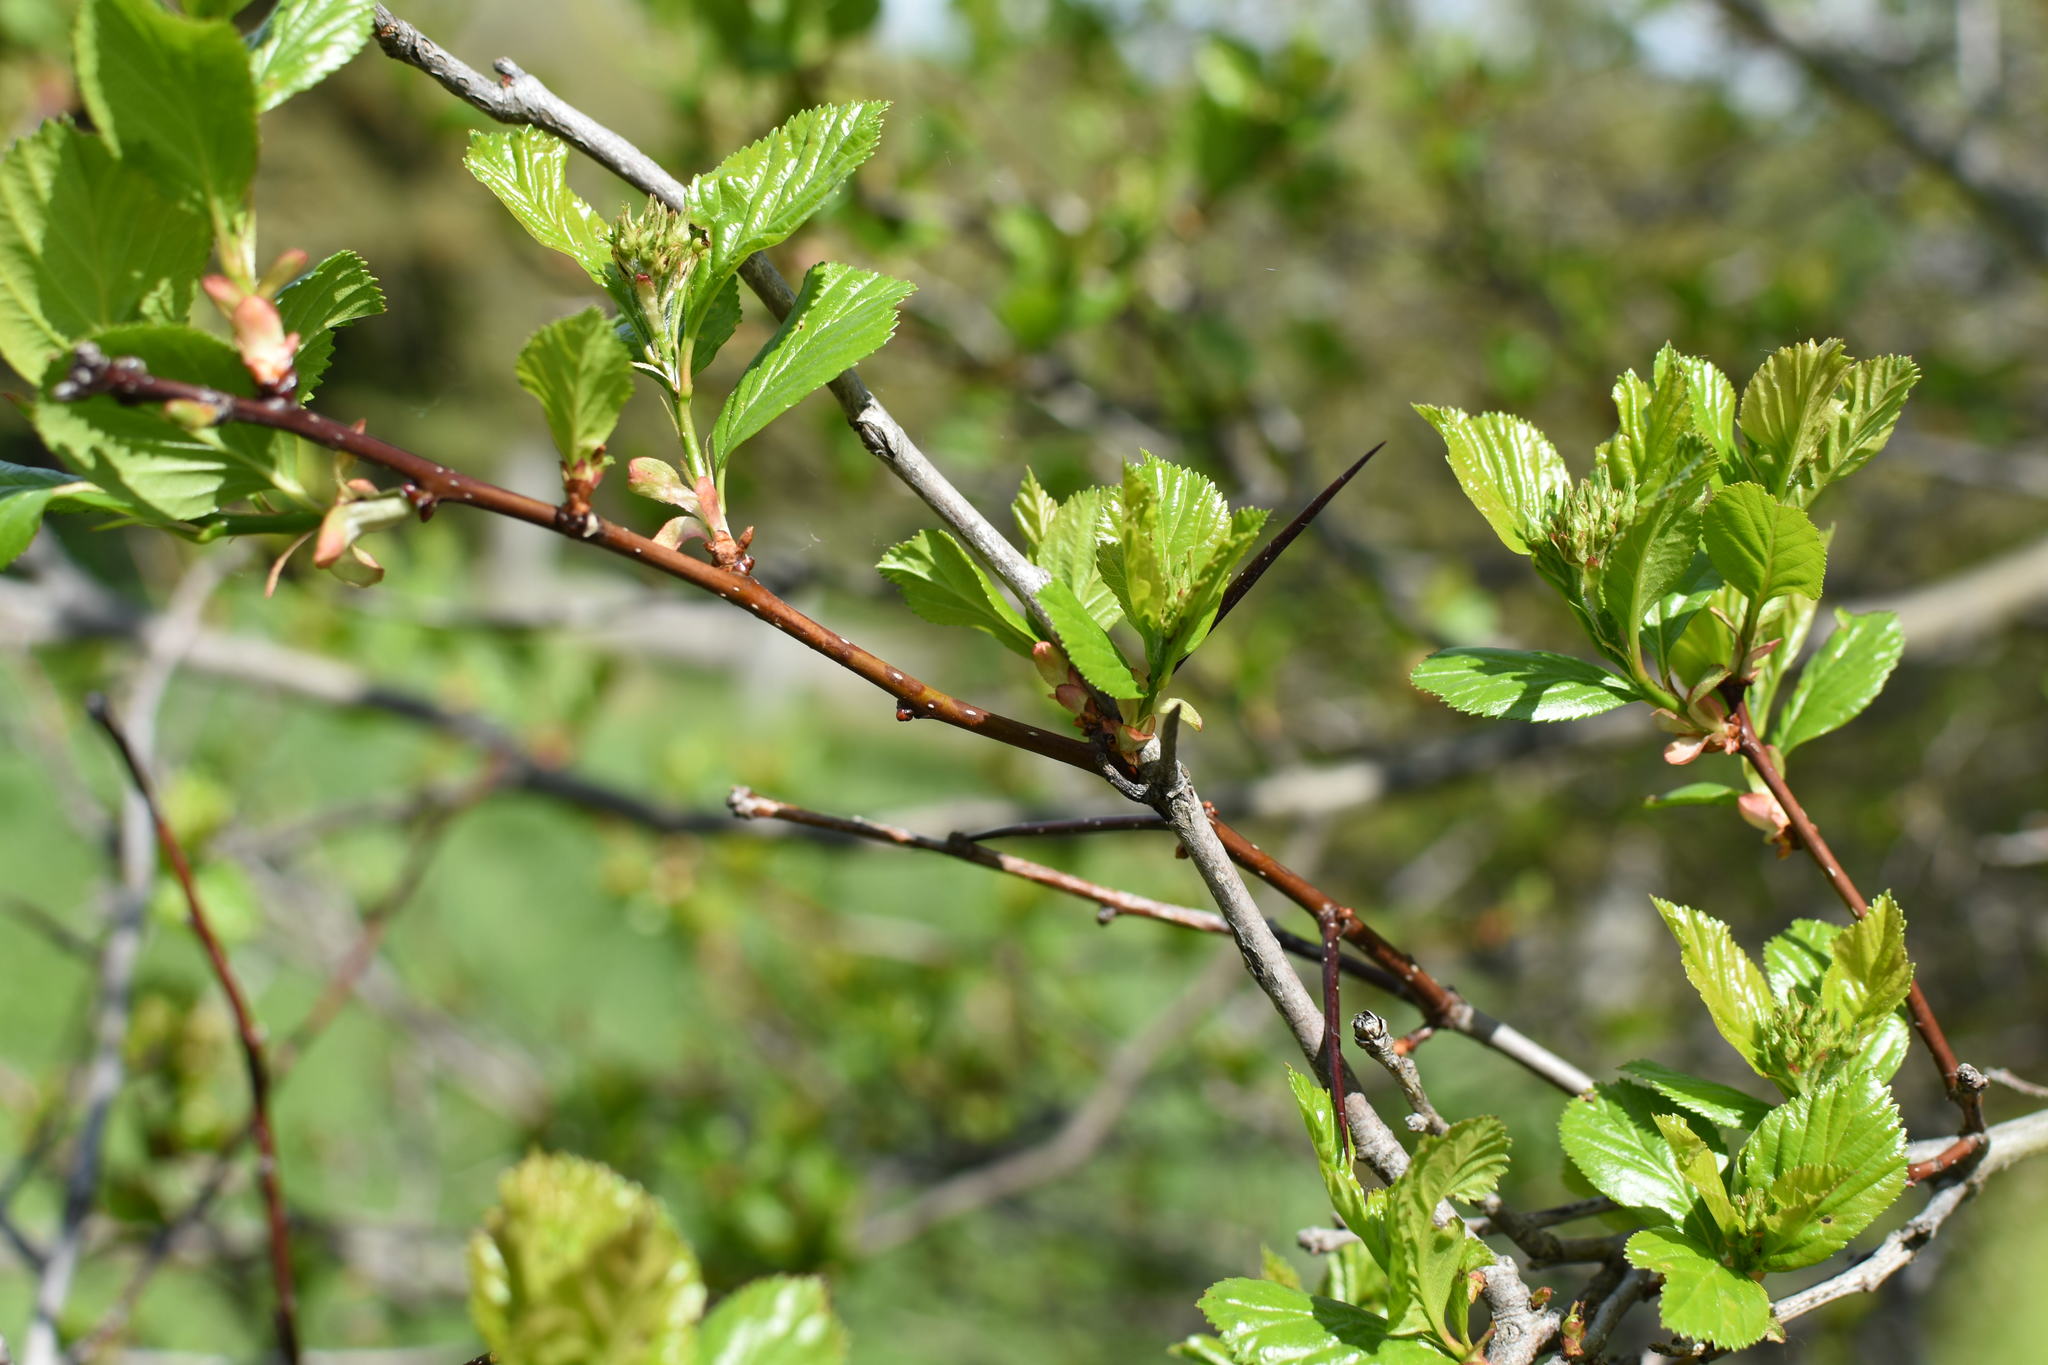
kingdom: Plantae
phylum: Tracheophyta
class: Magnoliopsida
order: Rosales
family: Rosaceae
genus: Crataegus
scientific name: Crataegus macracantha
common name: Large-thorn hawthorn
